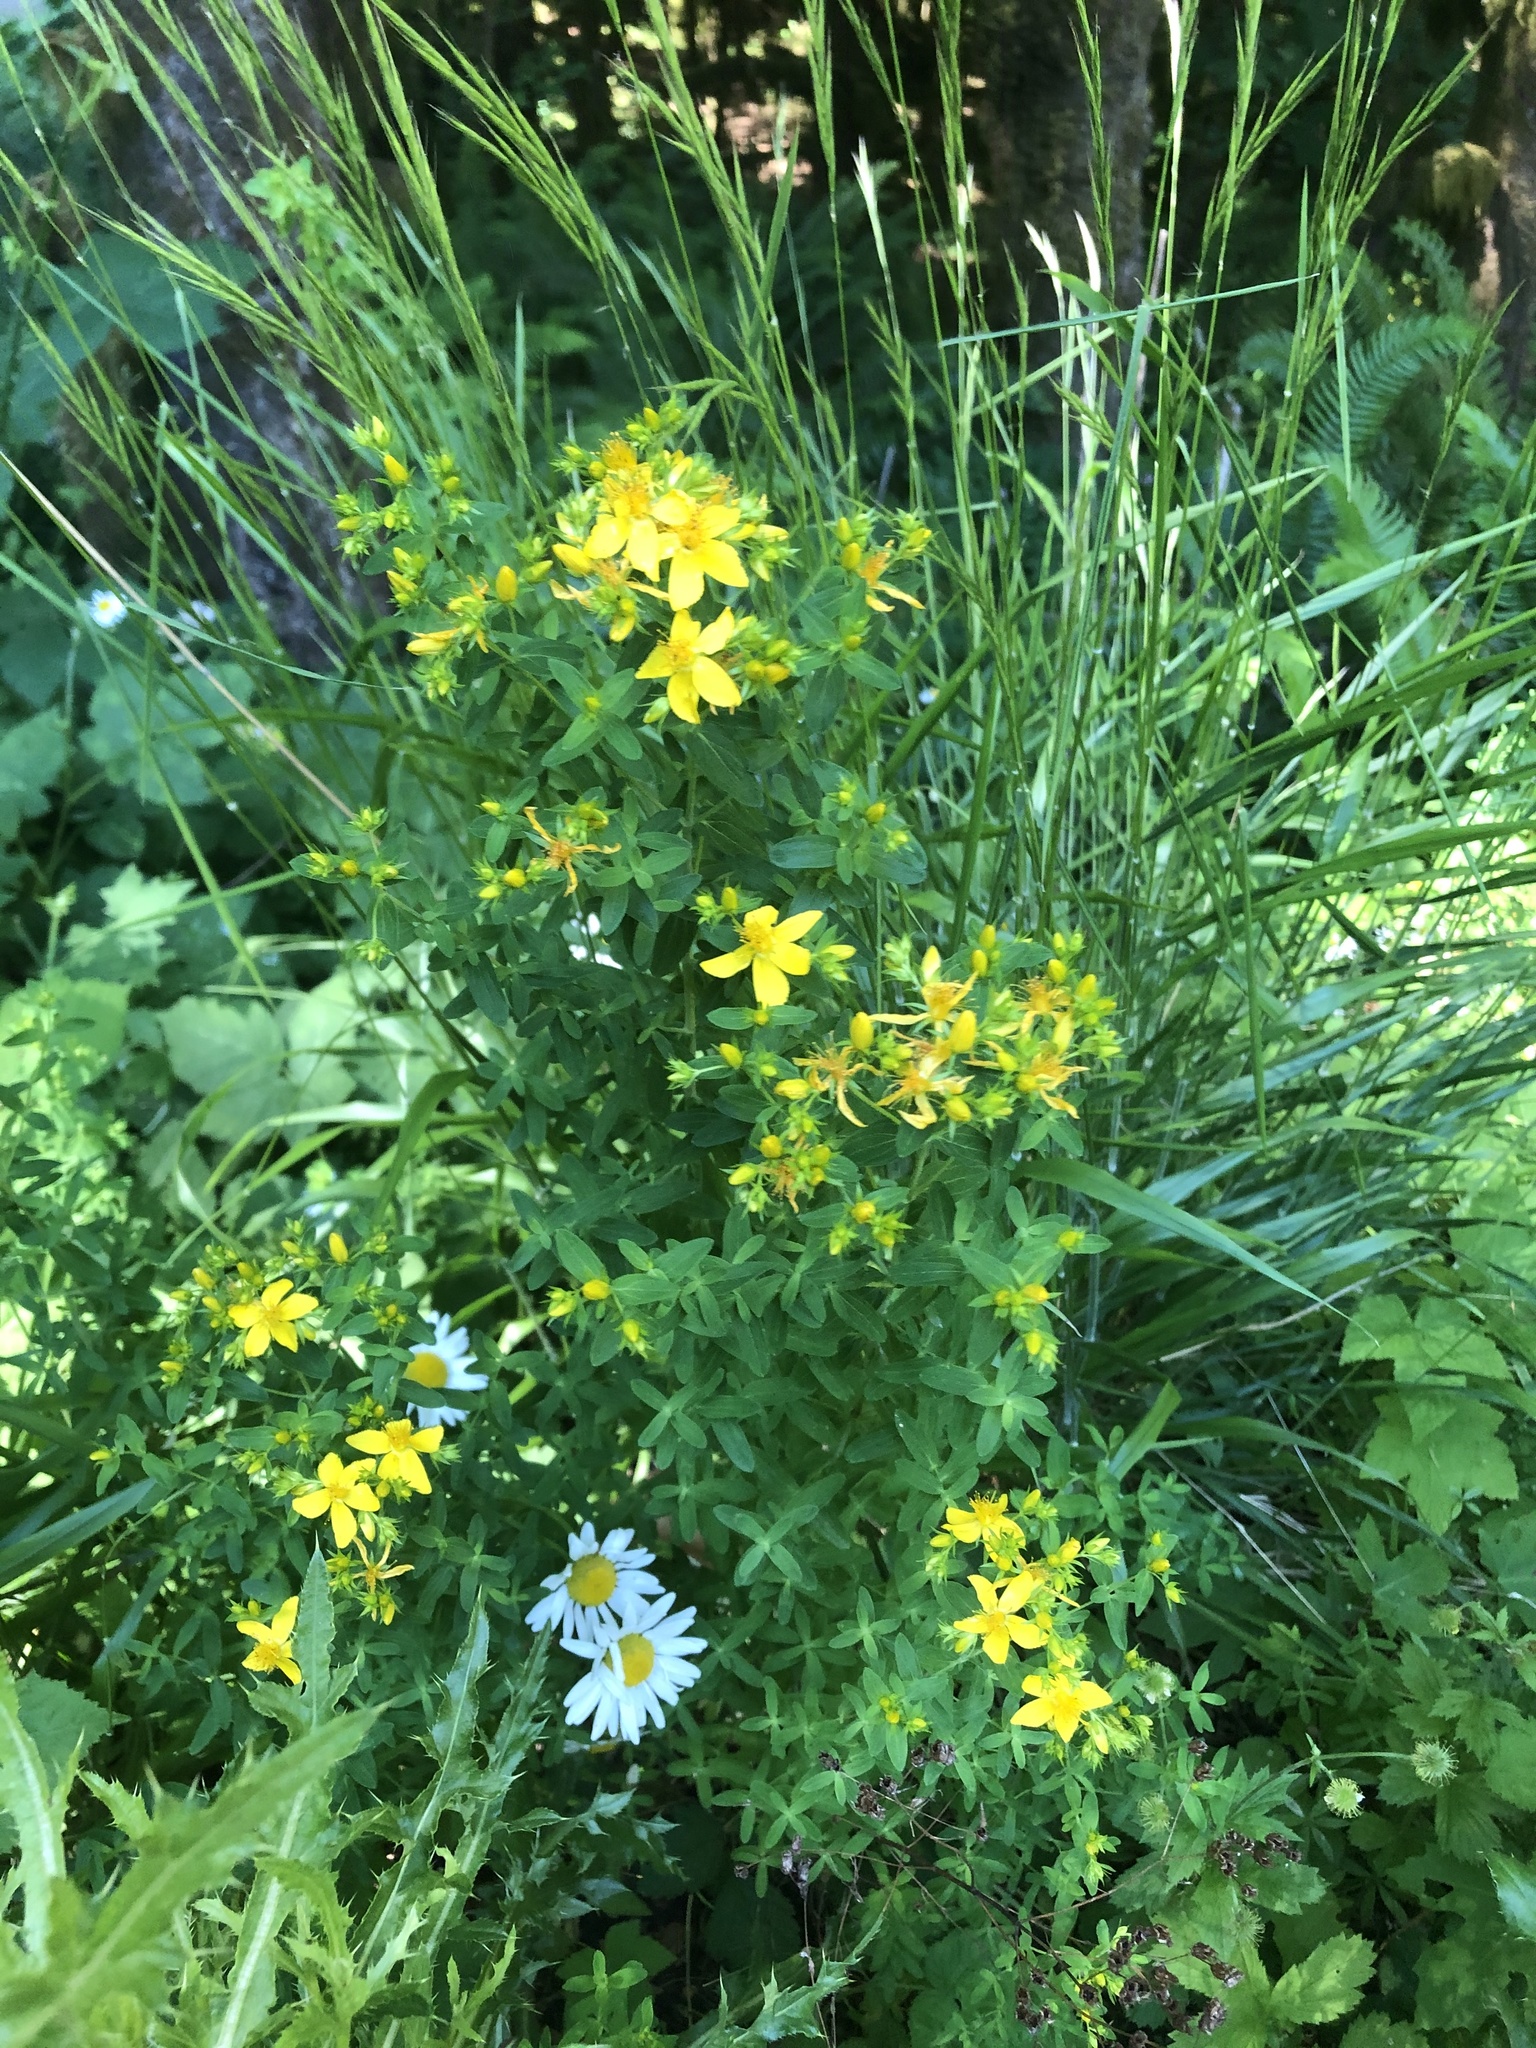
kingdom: Plantae
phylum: Tracheophyta
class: Magnoliopsida
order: Malpighiales
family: Hypericaceae
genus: Hypericum
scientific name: Hypericum perforatum
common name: Common st. johnswort
